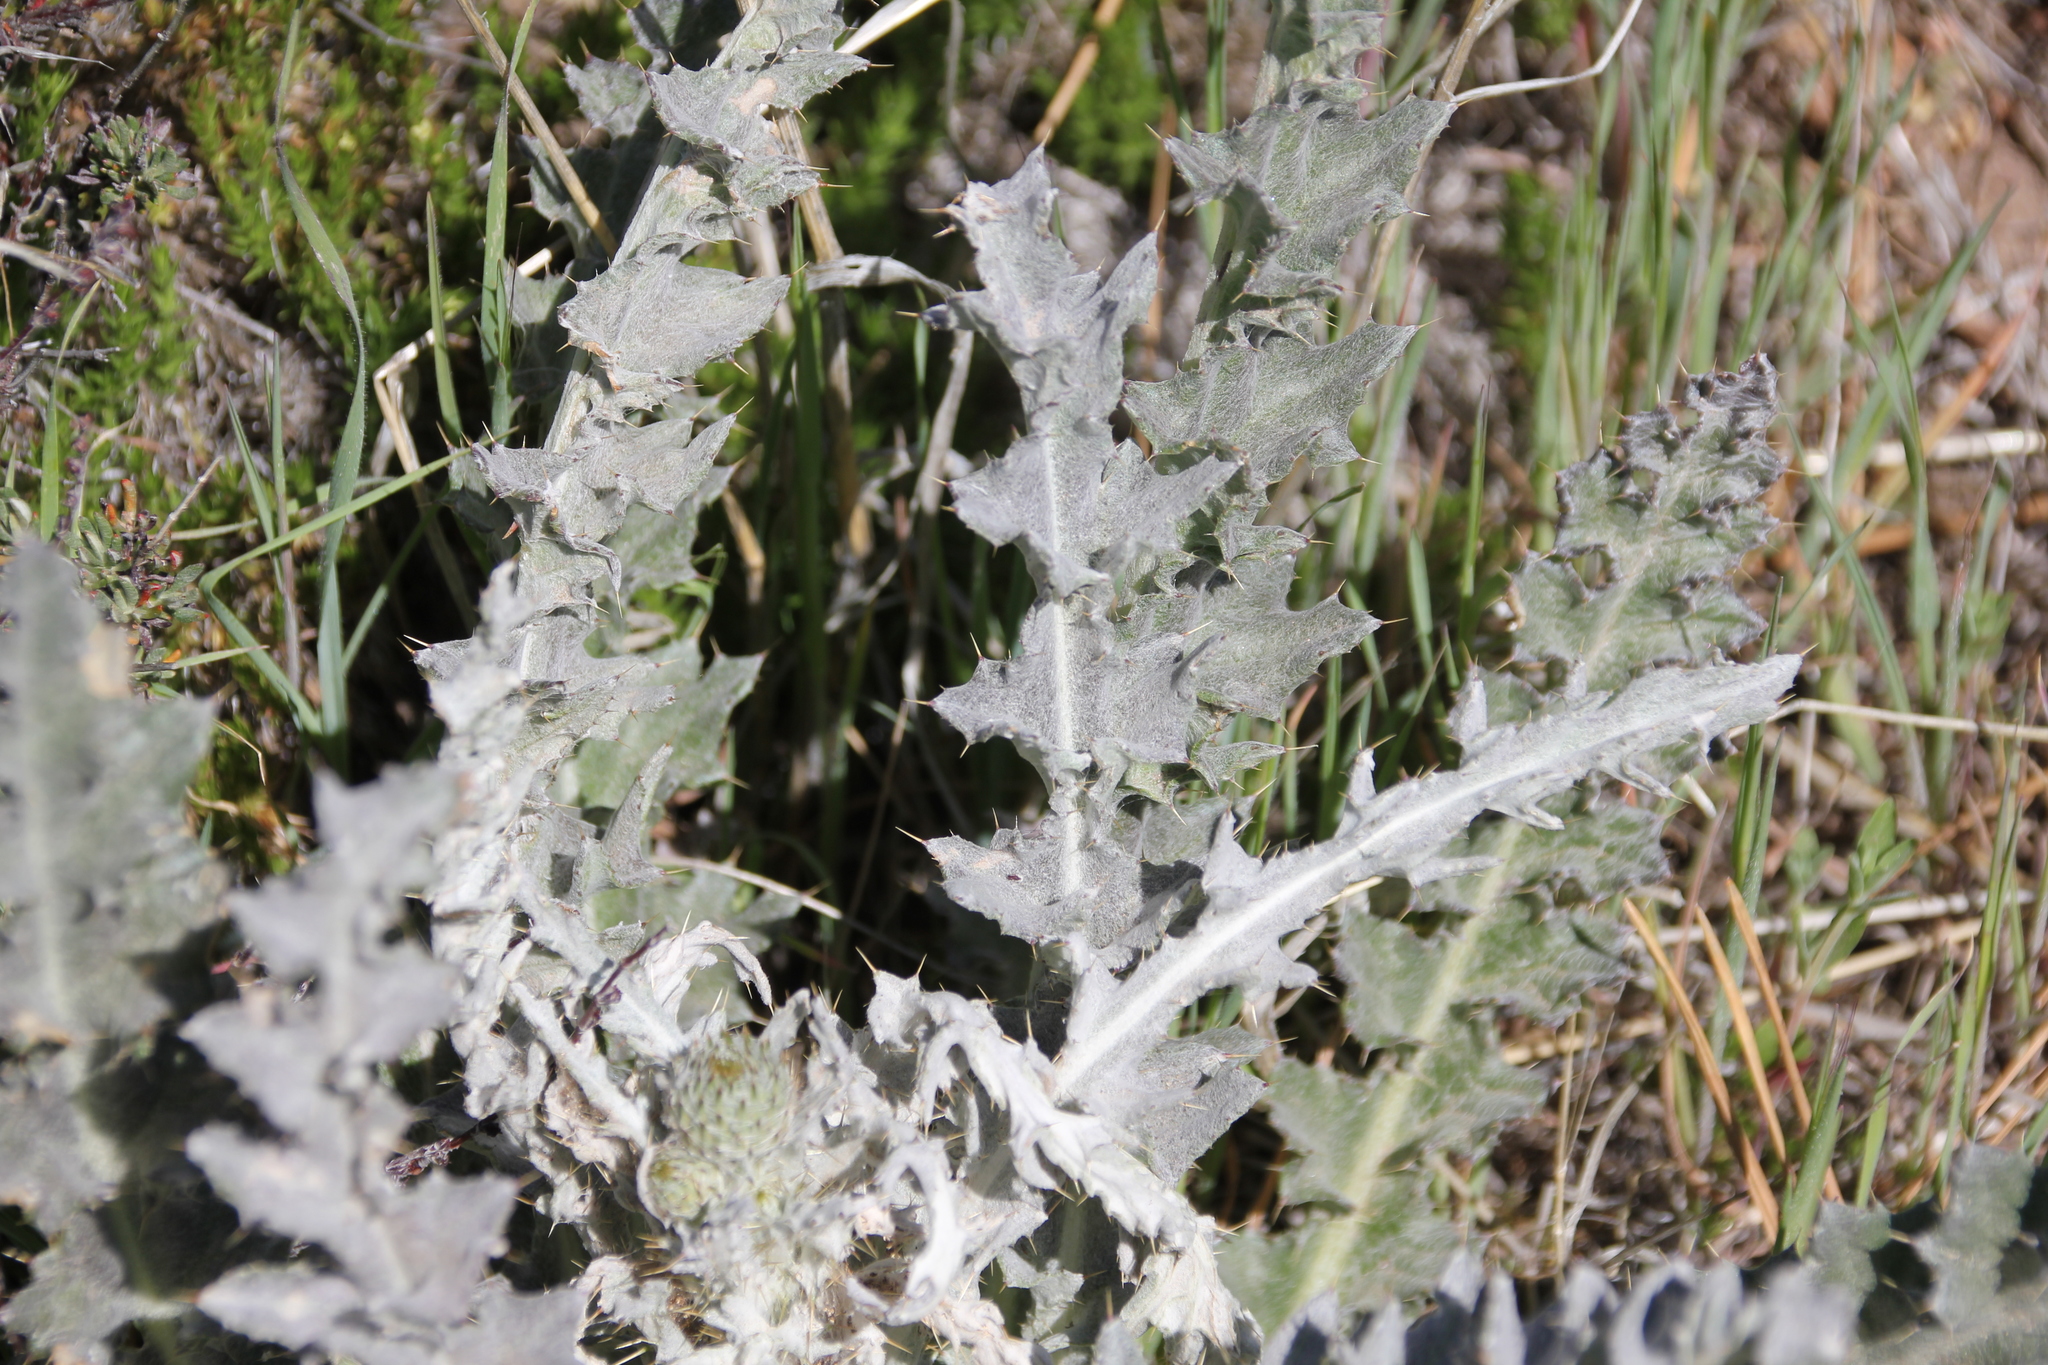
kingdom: Plantae
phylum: Tracheophyta
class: Magnoliopsida
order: Asterales
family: Asteraceae
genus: Cirsium
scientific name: Cirsium occidentale
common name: Western thistle
